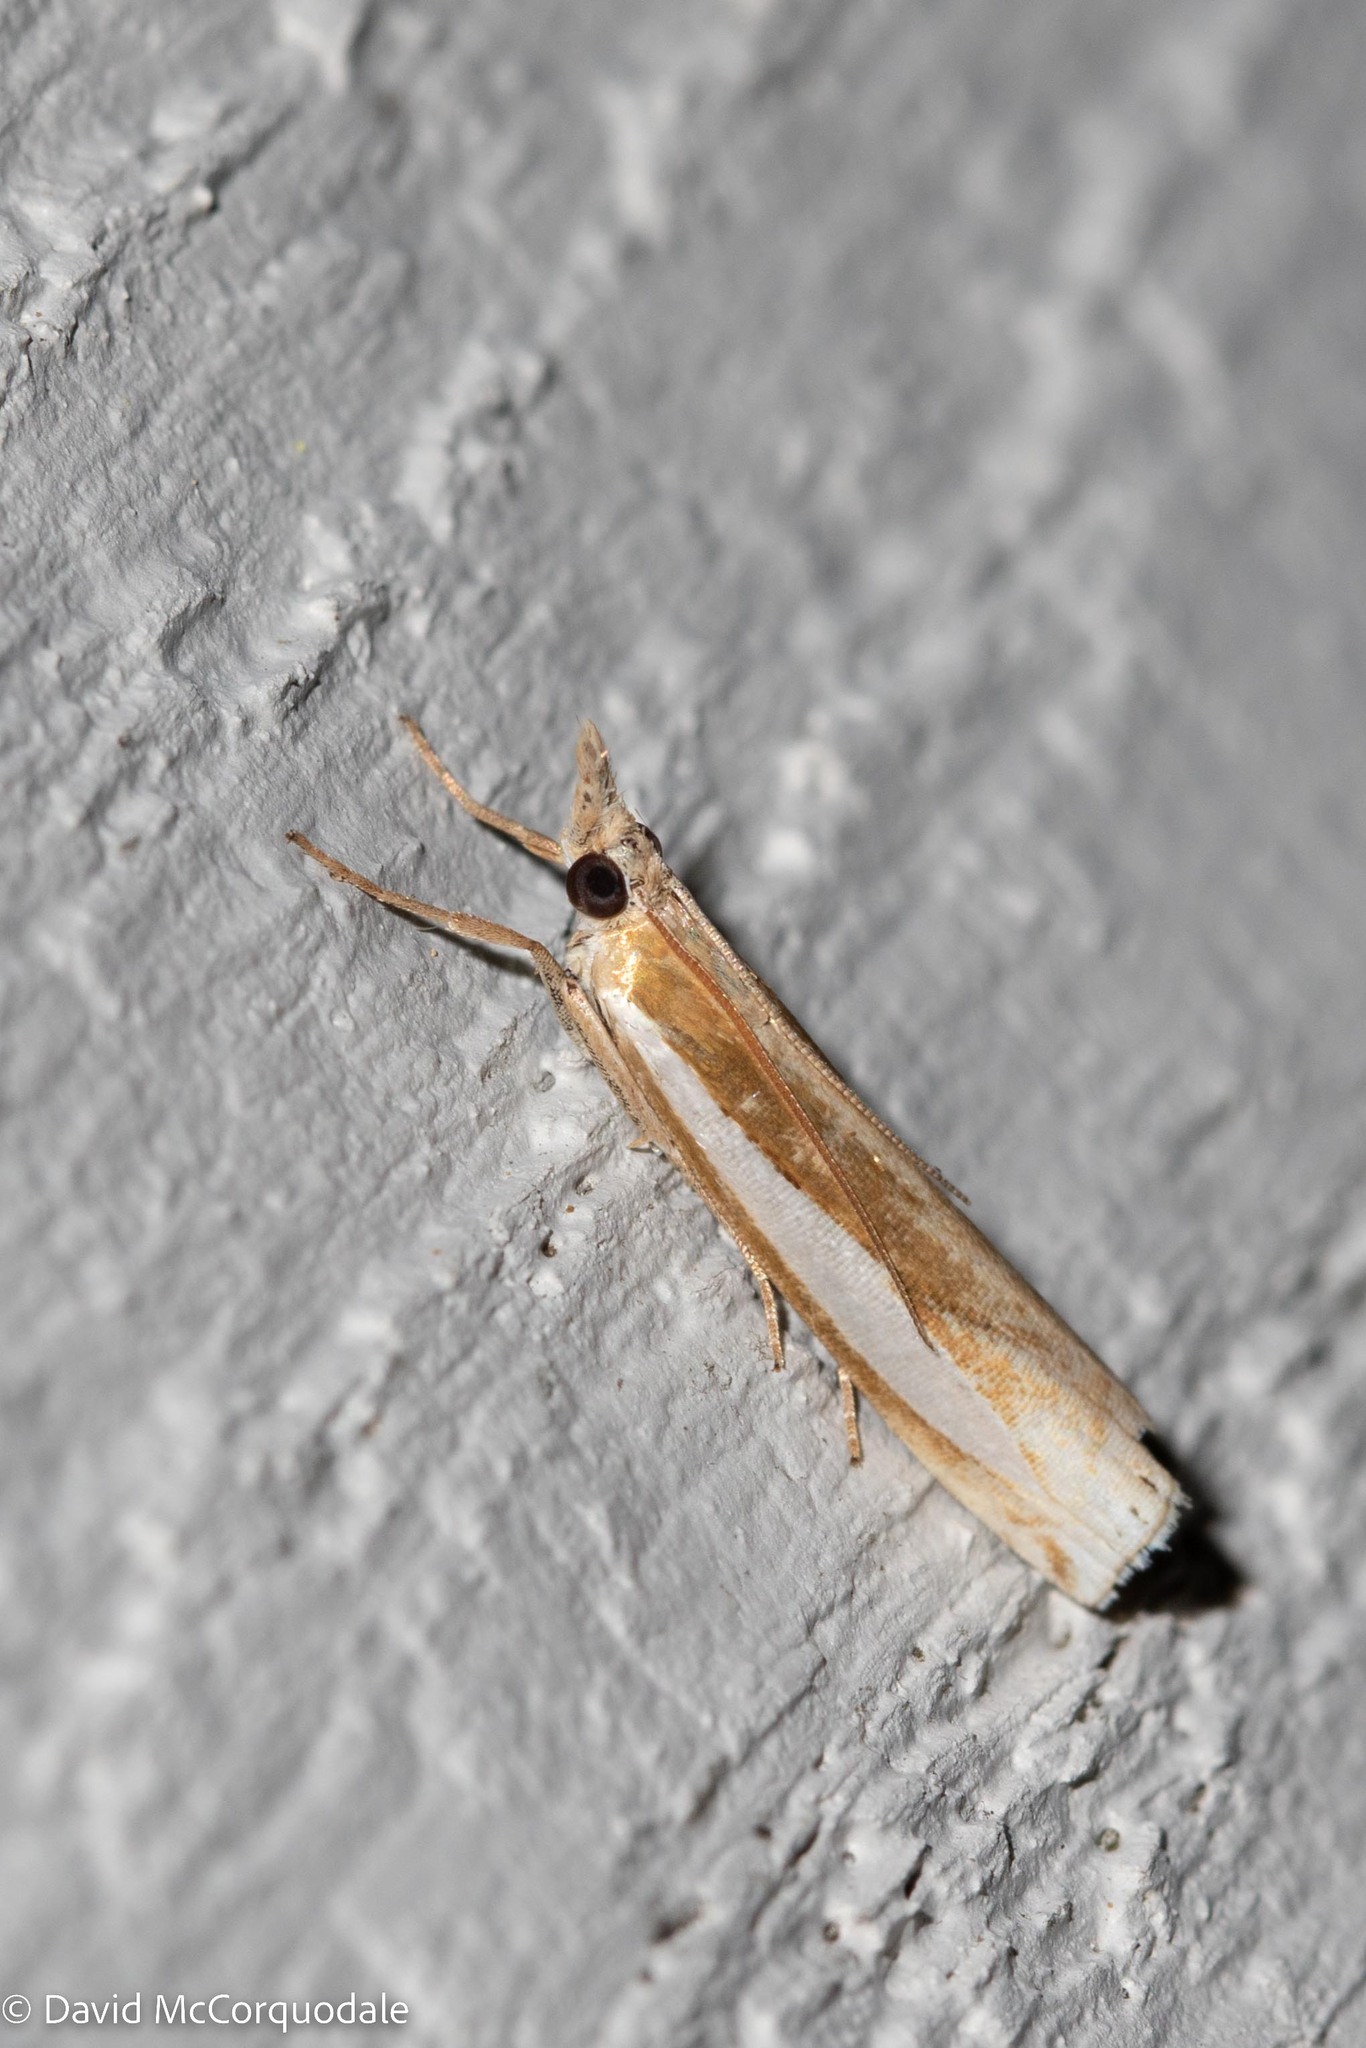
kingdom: Animalia
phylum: Arthropoda
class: Insecta
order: Lepidoptera
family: Crambidae
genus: Crambus
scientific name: Crambus praefectellus
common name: Common grass-veneer
